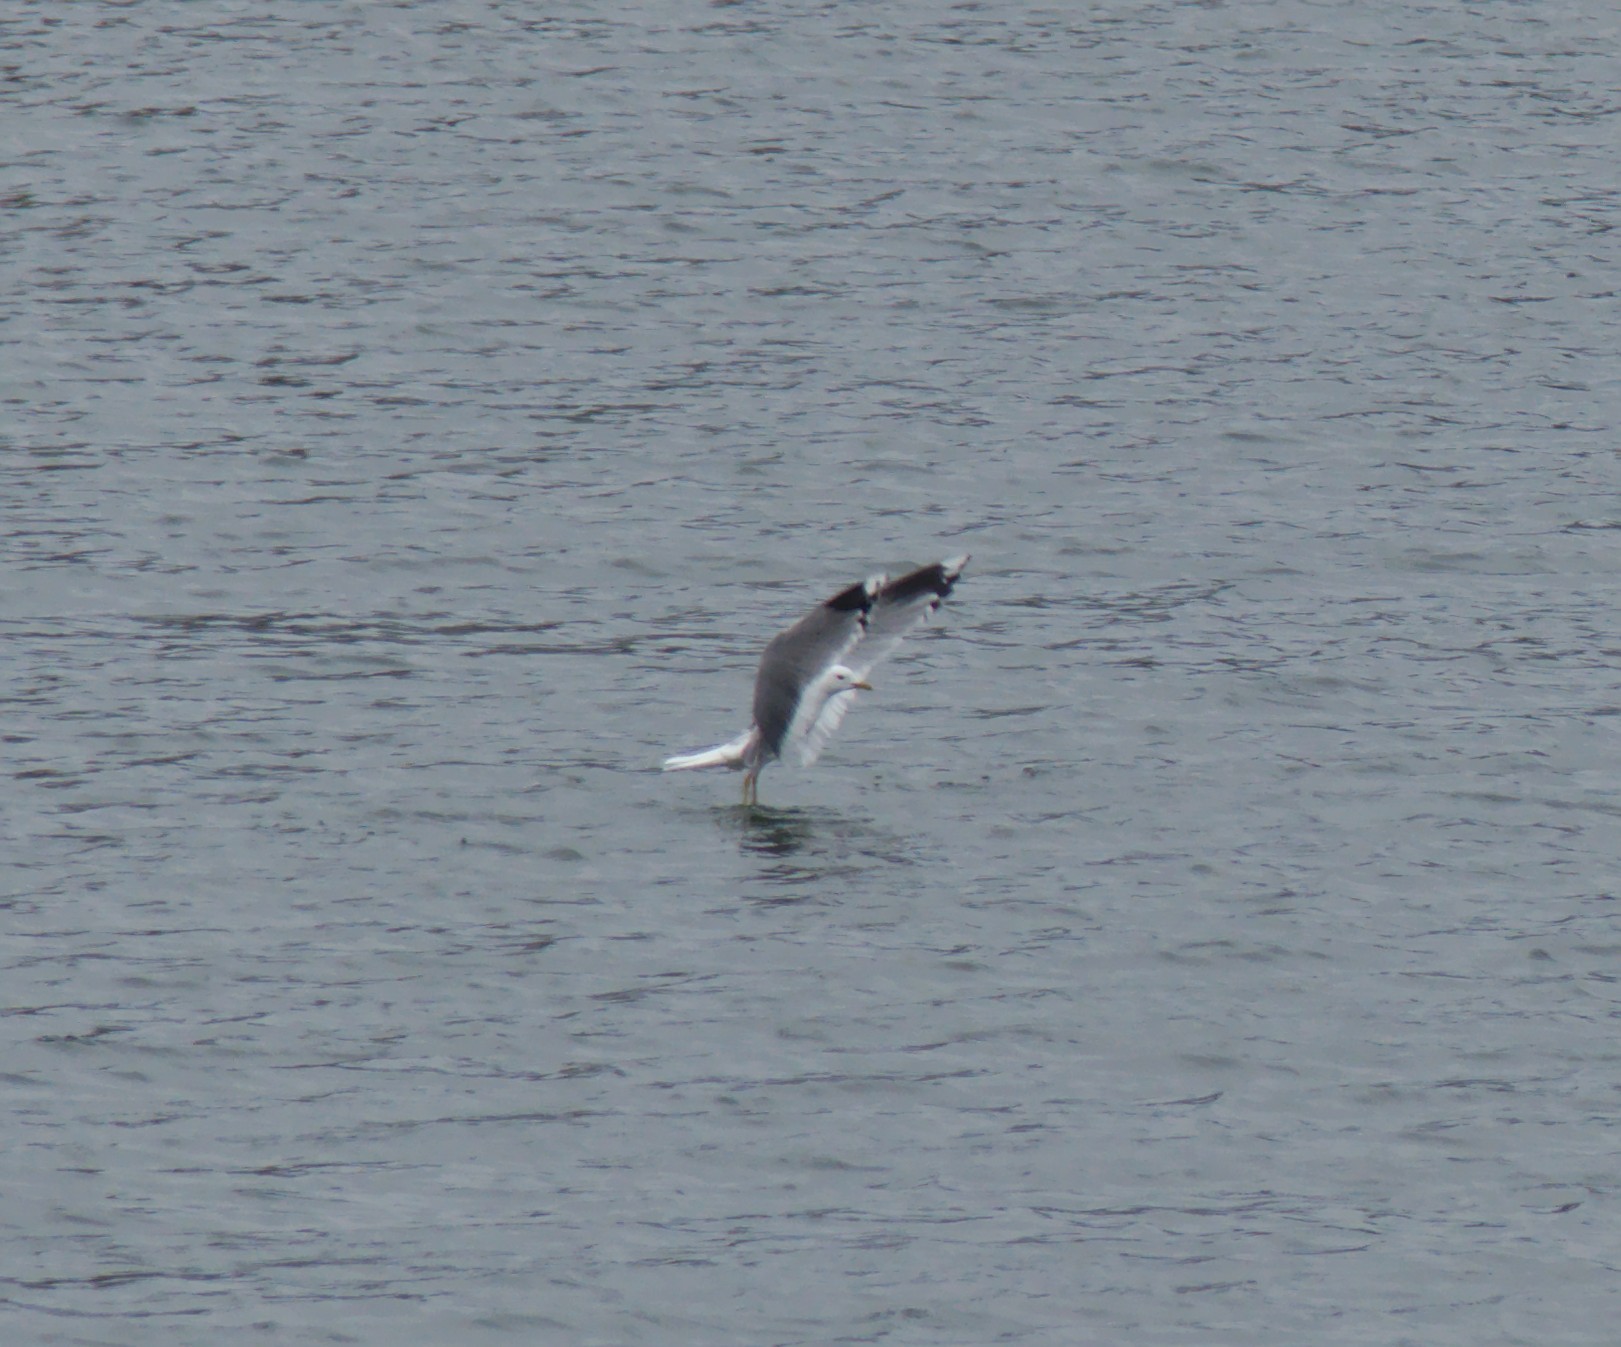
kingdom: Animalia
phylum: Chordata
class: Aves
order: Charadriiformes
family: Laridae
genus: Larus
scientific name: Larus canus
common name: Mew gull
